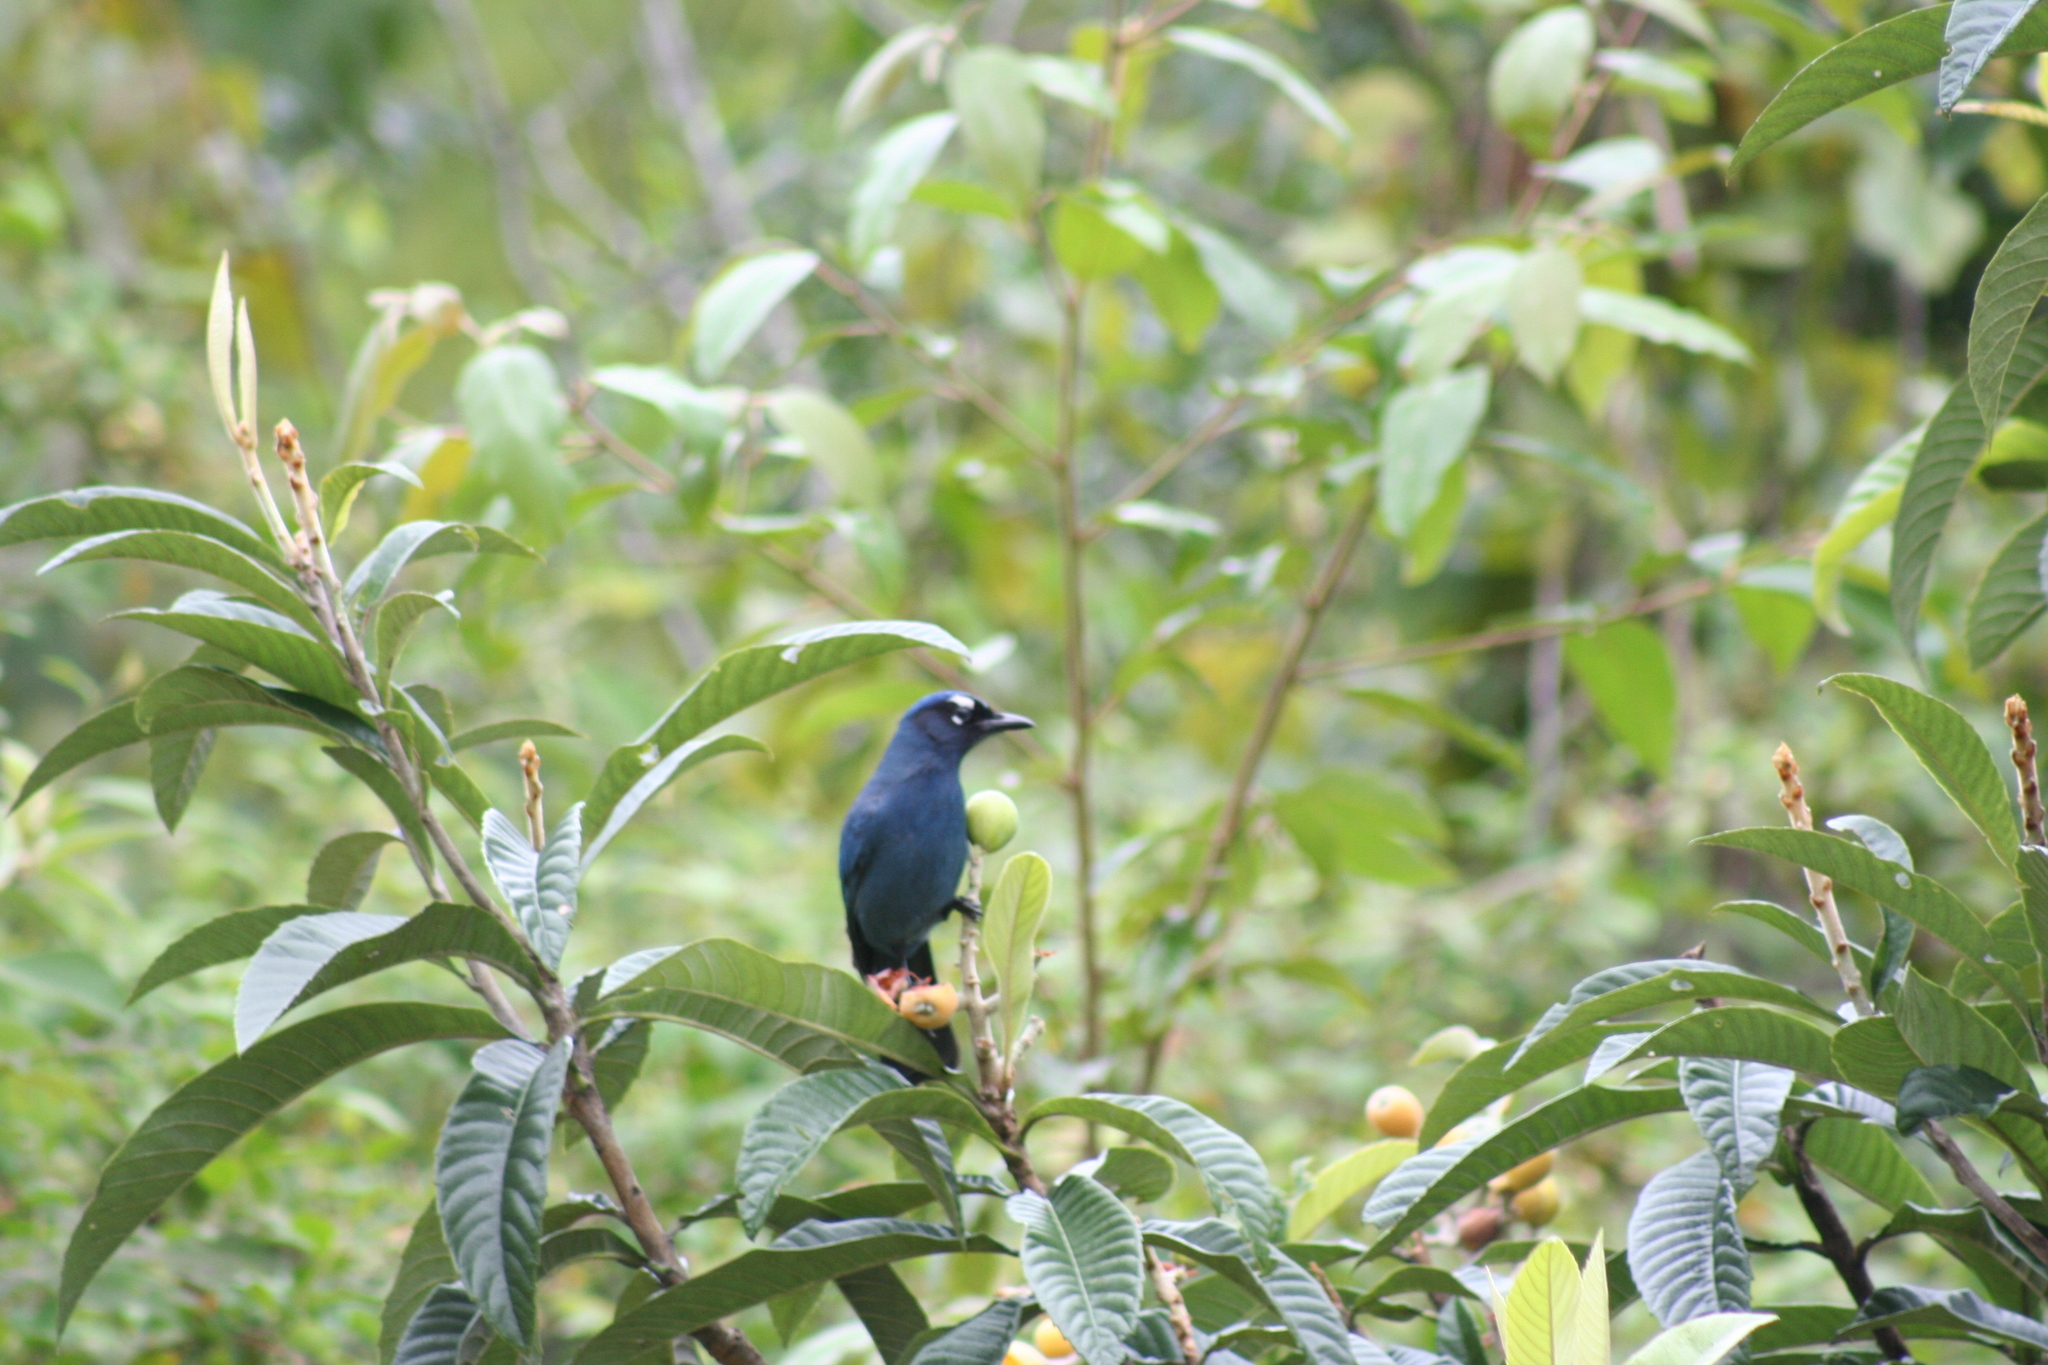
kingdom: Animalia
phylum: Chordata
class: Aves
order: Passeriformes
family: Corvidae
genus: Cyanocitta
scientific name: Cyanocitta stelleri
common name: Steller's jay
